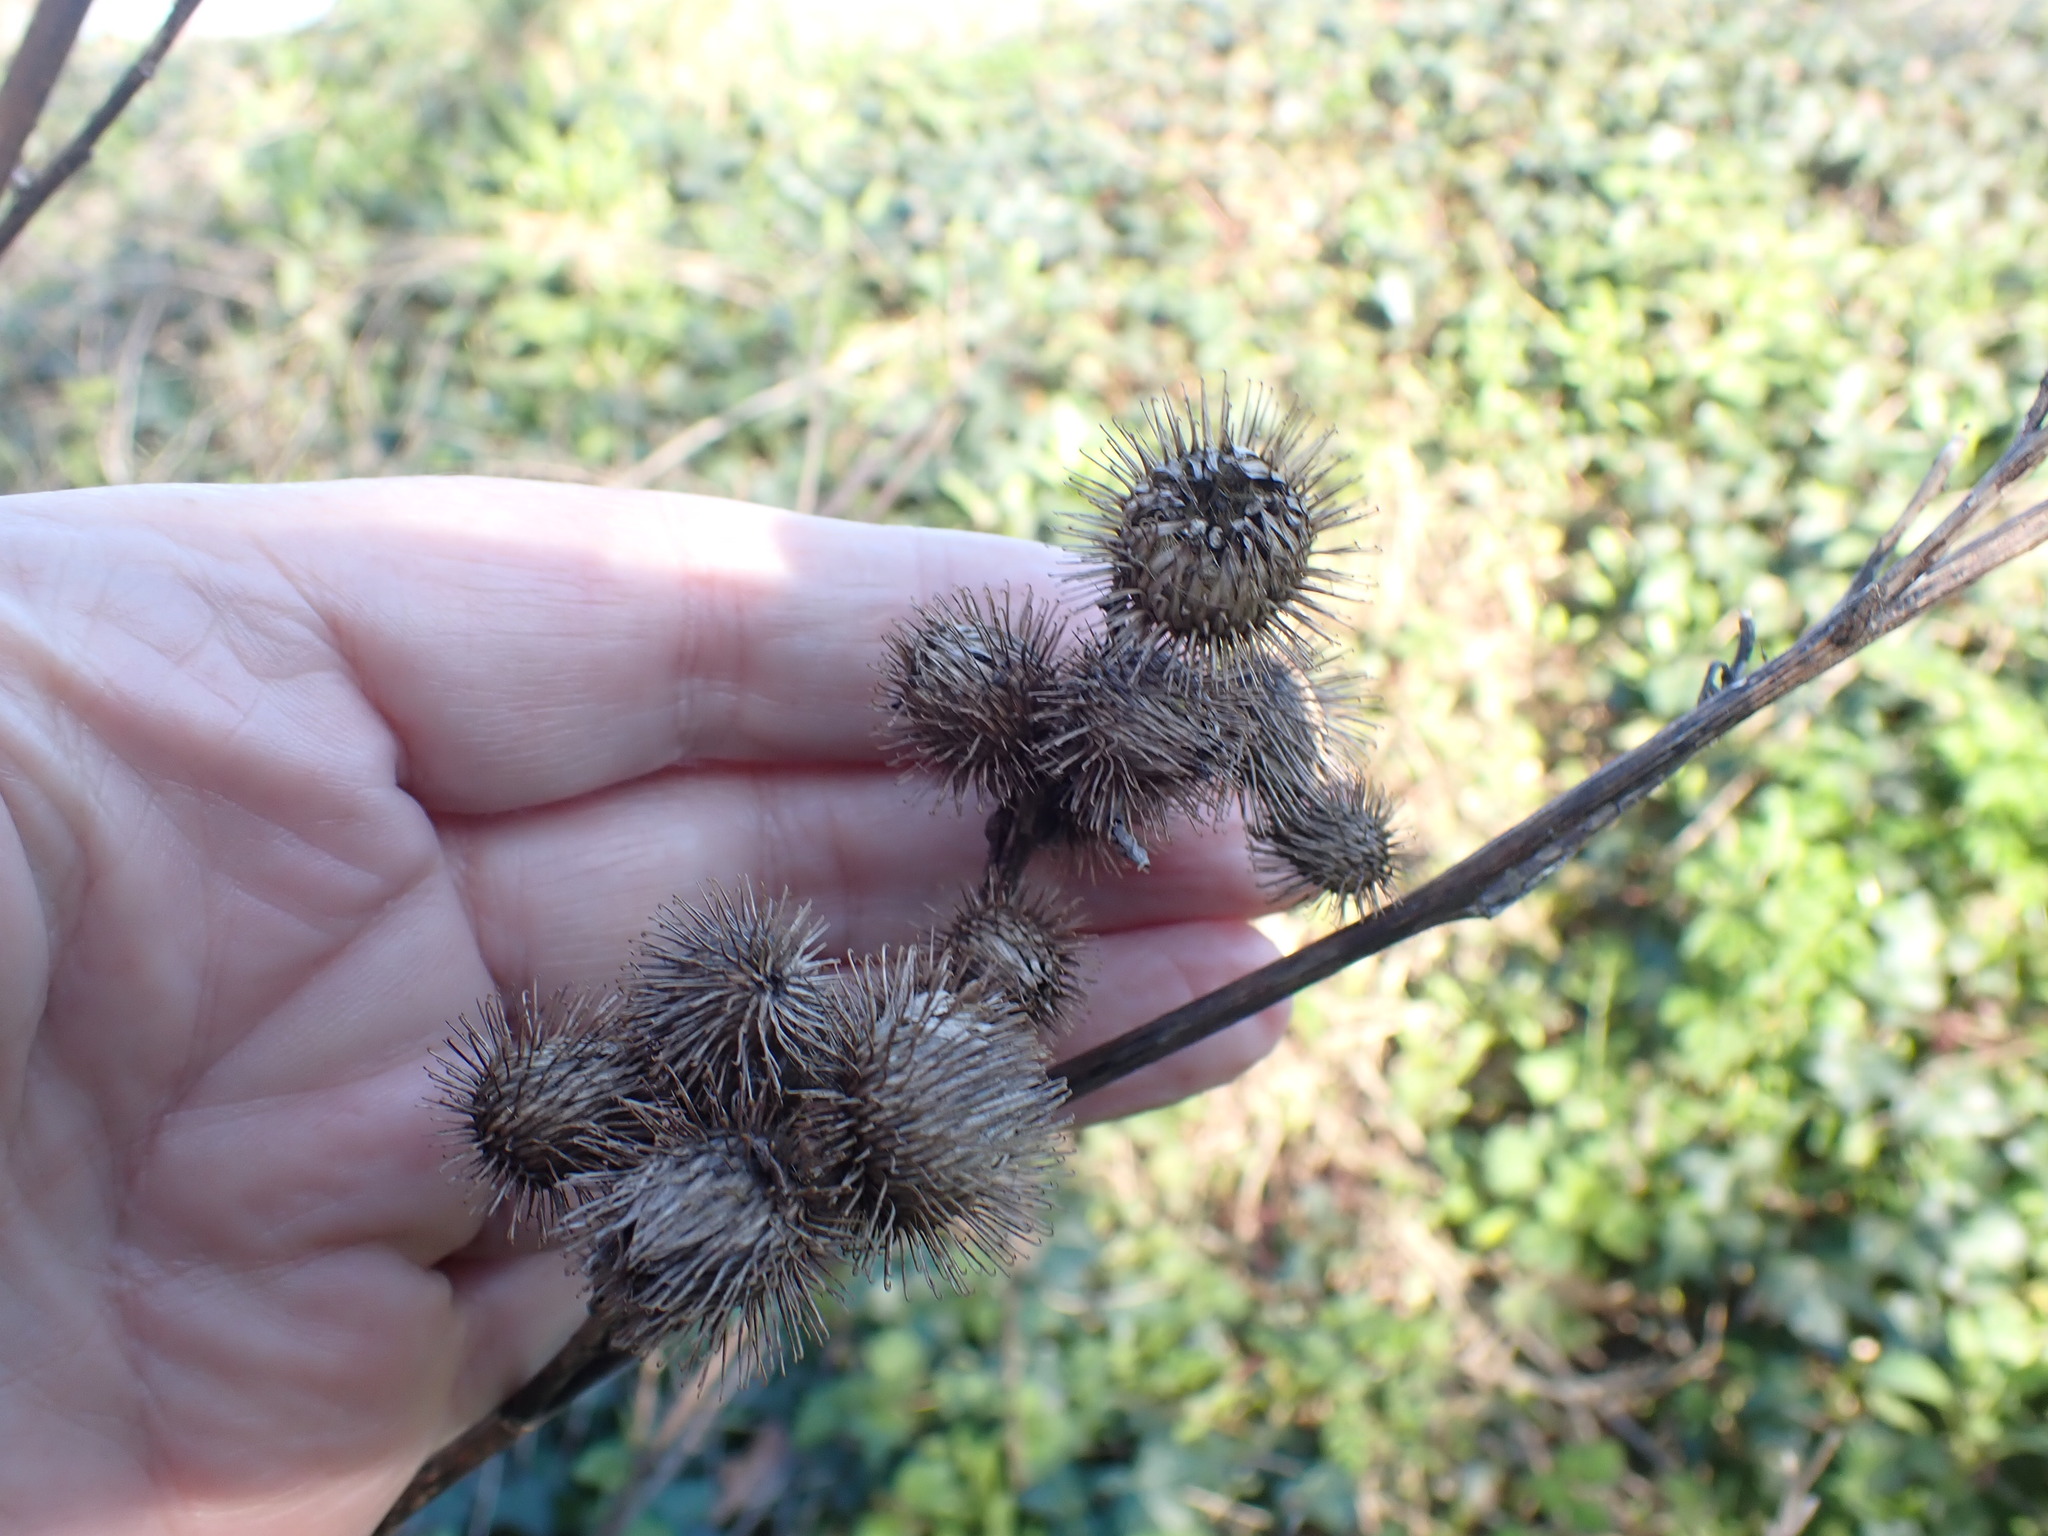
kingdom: Plantae
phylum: Tracheophyta
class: Magnoliopsida
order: Asterales
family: Asteraceae
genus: Arctium
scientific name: Arctium minus
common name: Lesser burdock
